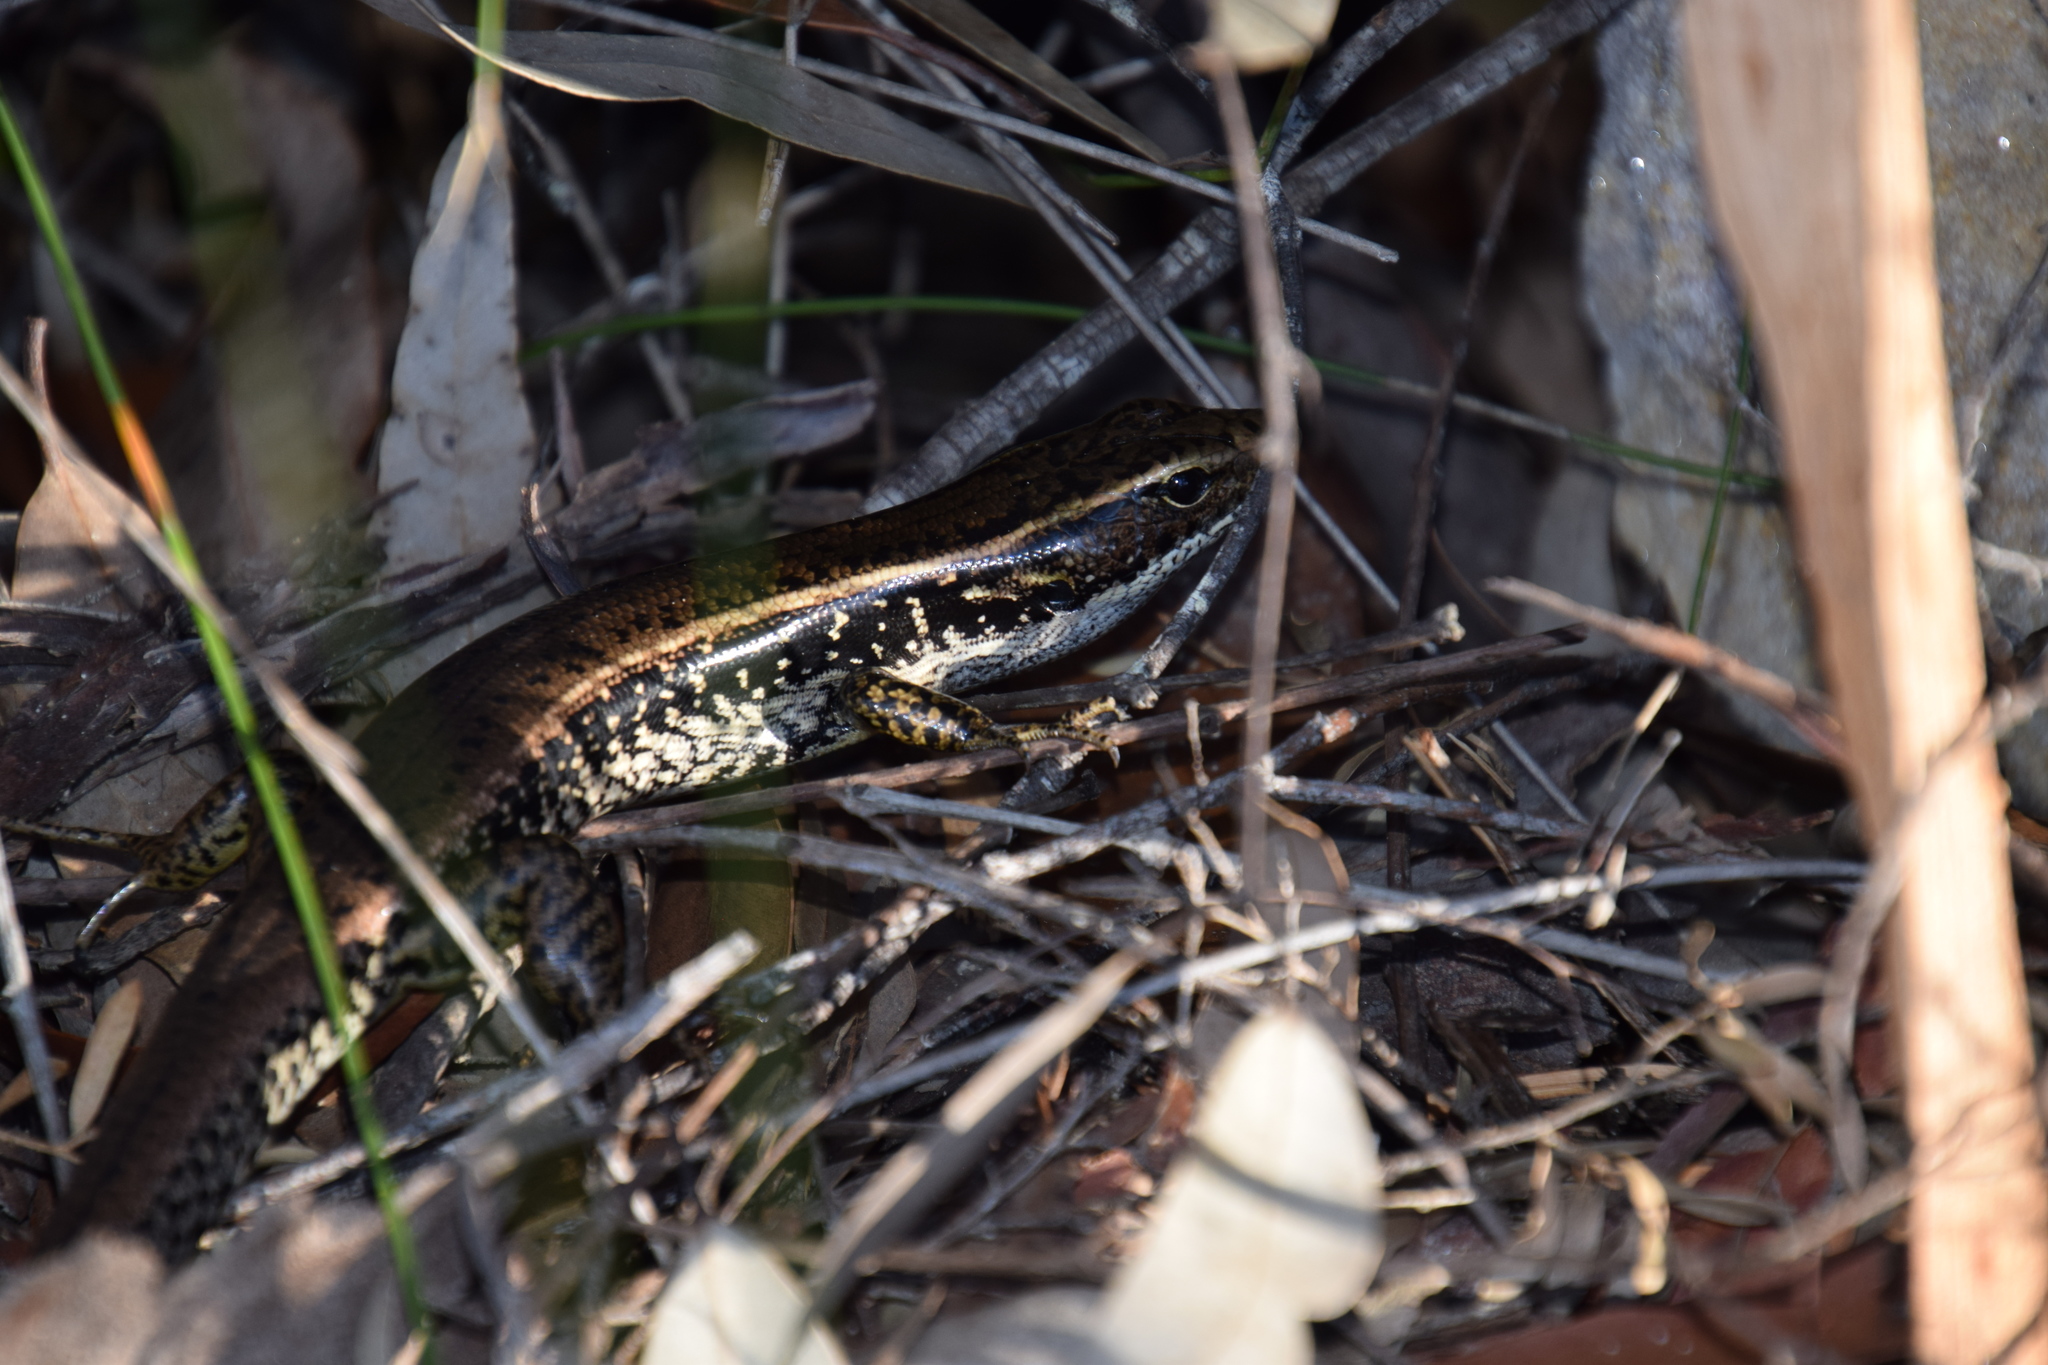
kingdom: Animalia
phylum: Chordata
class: Squamata
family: Scincidae
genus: Eulamprus
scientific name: Eulamprus quoyii
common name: Eastern water skink
